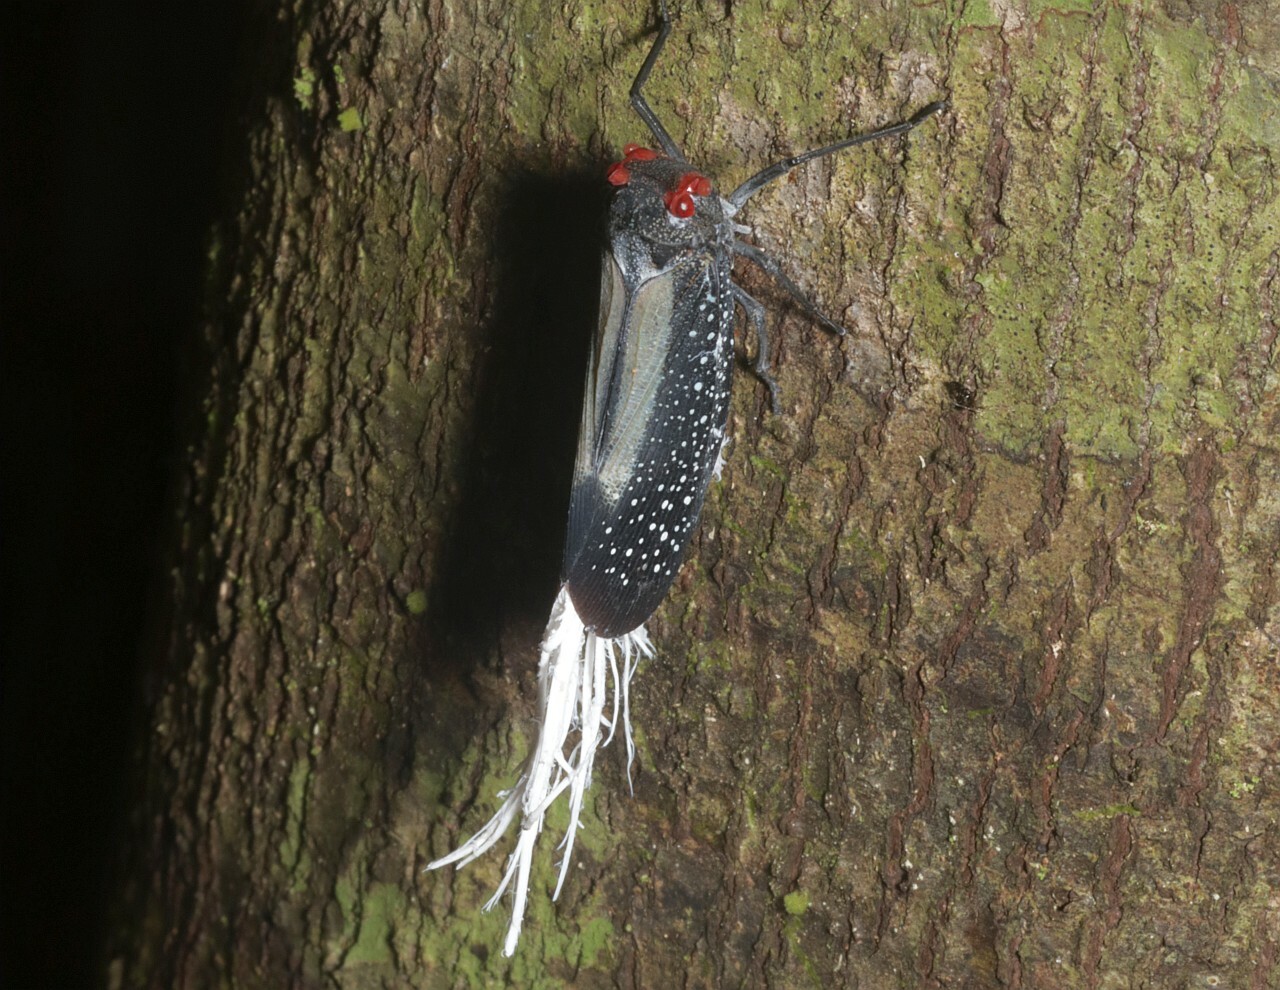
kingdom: Animalia
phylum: Arthropoda
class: Insecta
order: Hemiptera
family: Fulgoridae
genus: Lystra
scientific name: Lystra lanata
